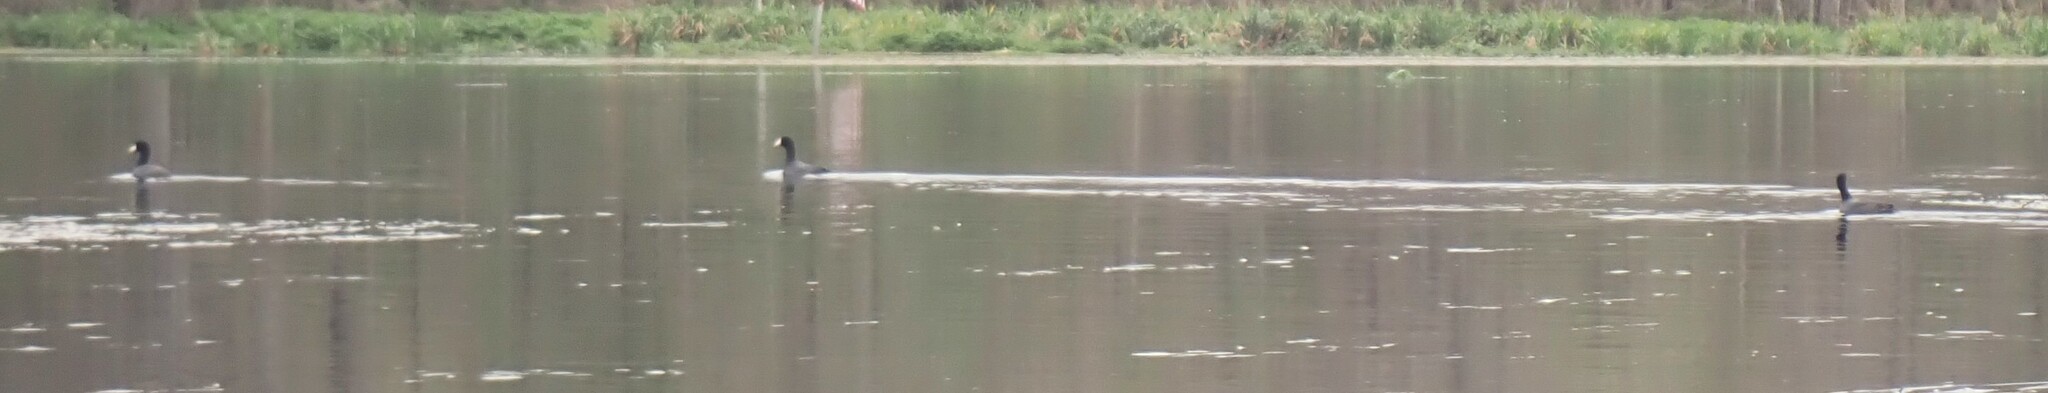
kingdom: Animalia
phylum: Chordata
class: Aves
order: Gruiformes
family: Rallidae
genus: Fulica
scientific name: Fulica americana
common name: American coot
